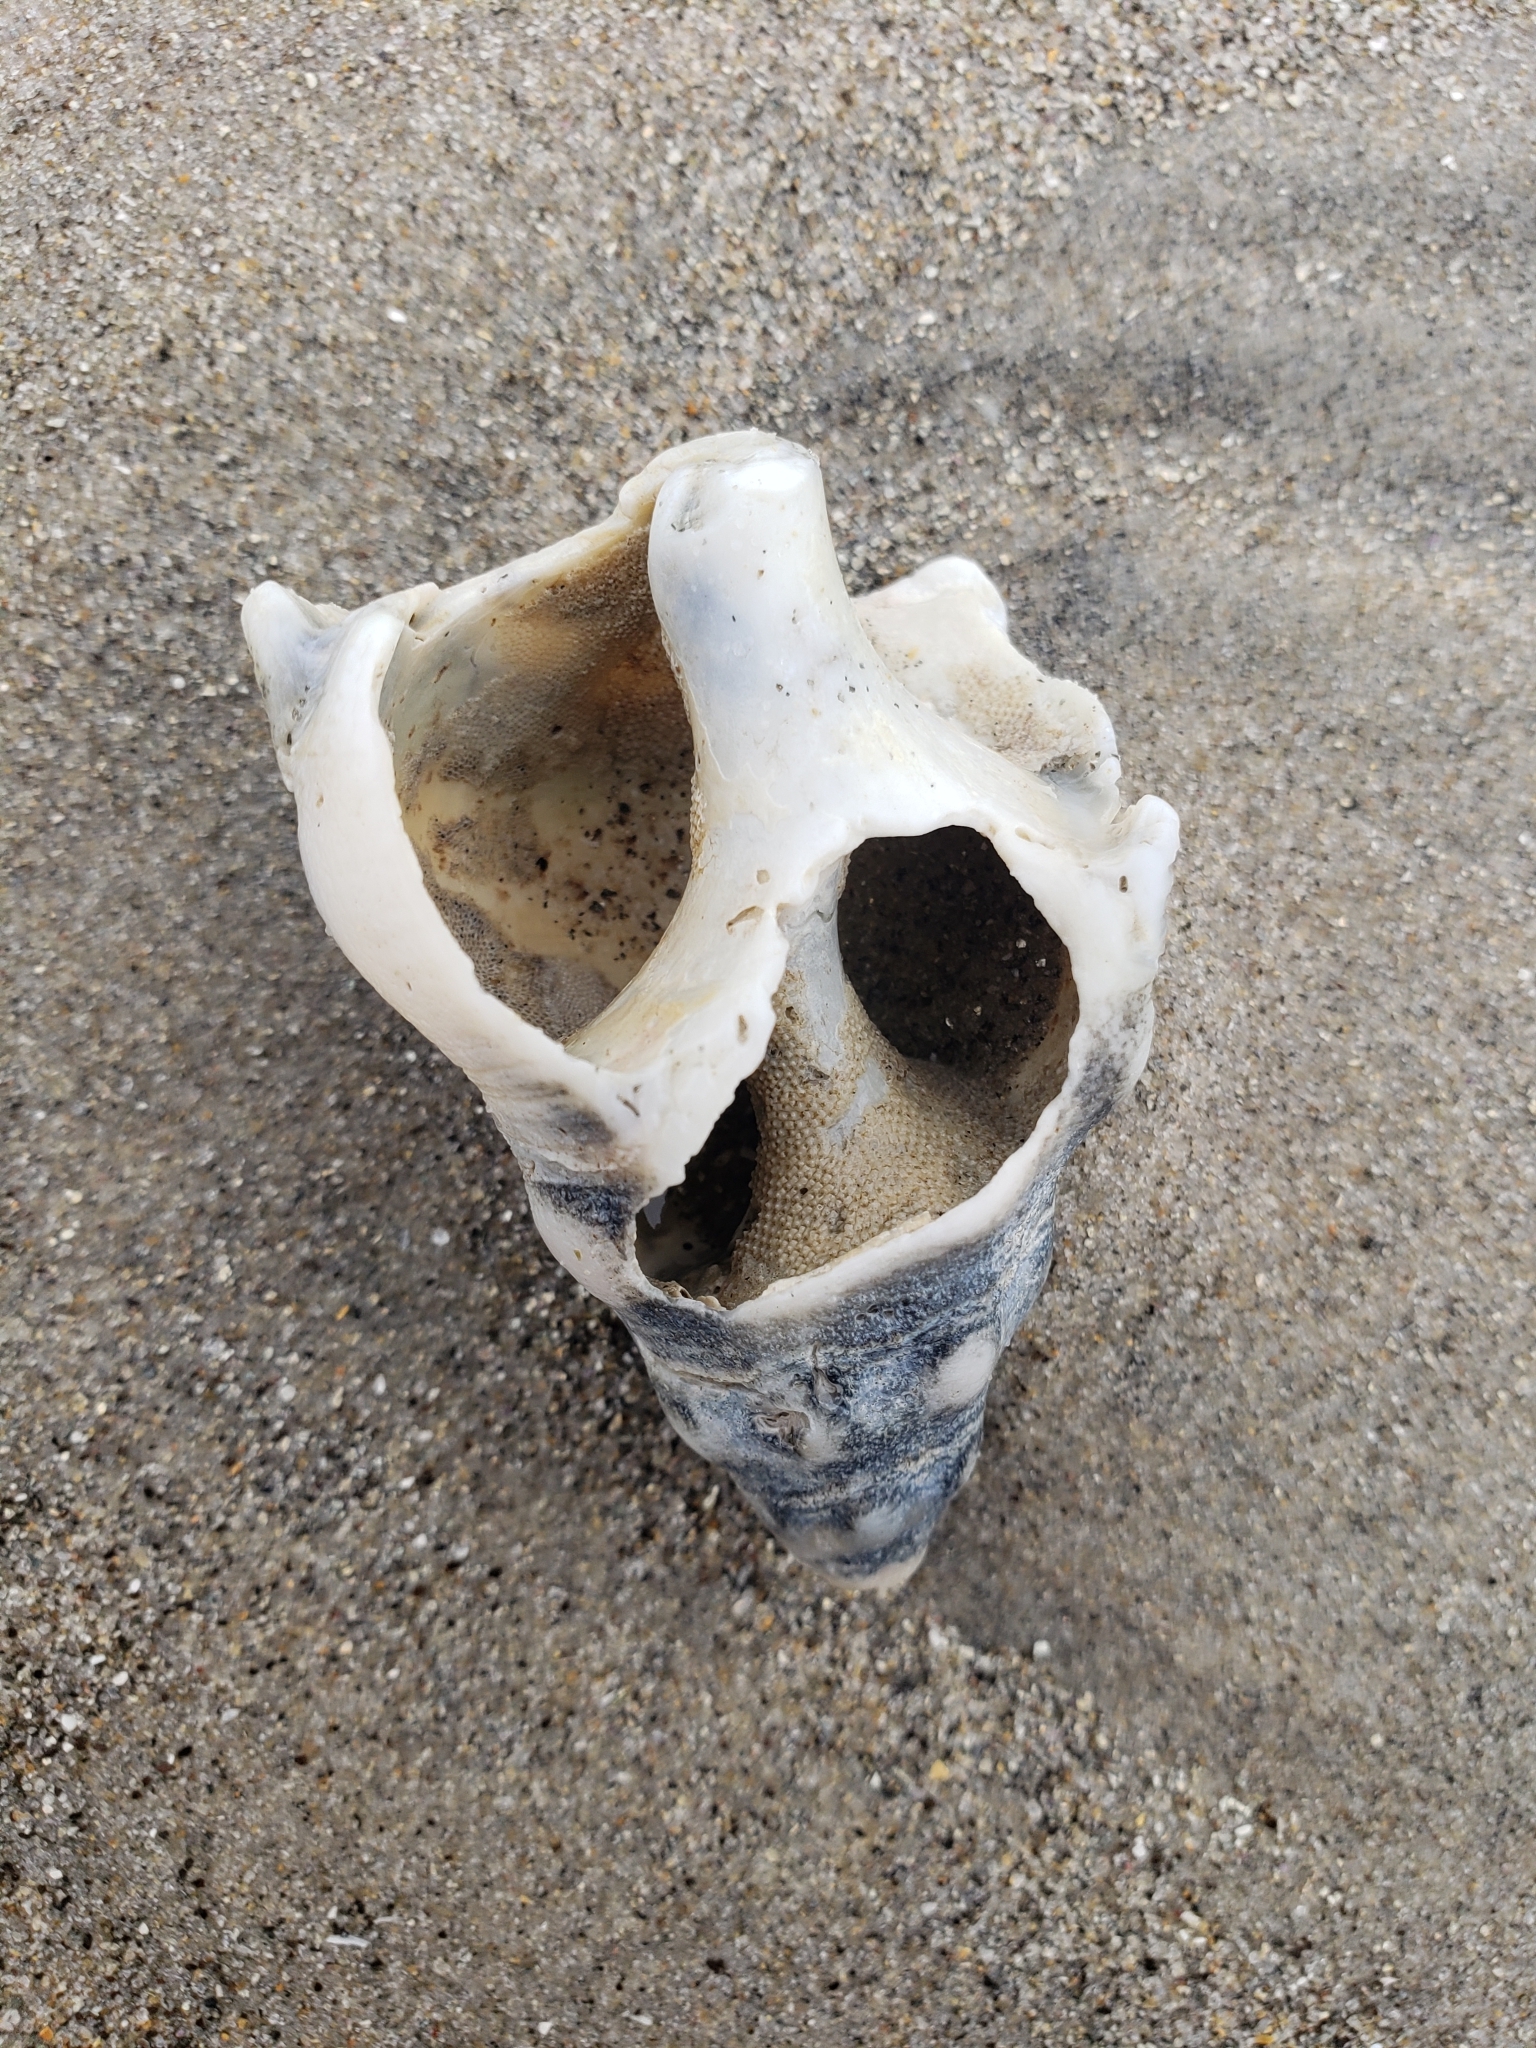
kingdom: Animalia
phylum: Mollusca
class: Gastropoda
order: Neogastropoda
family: Austrosiphonidae
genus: Kelletia
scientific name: Kelletia kelletii
